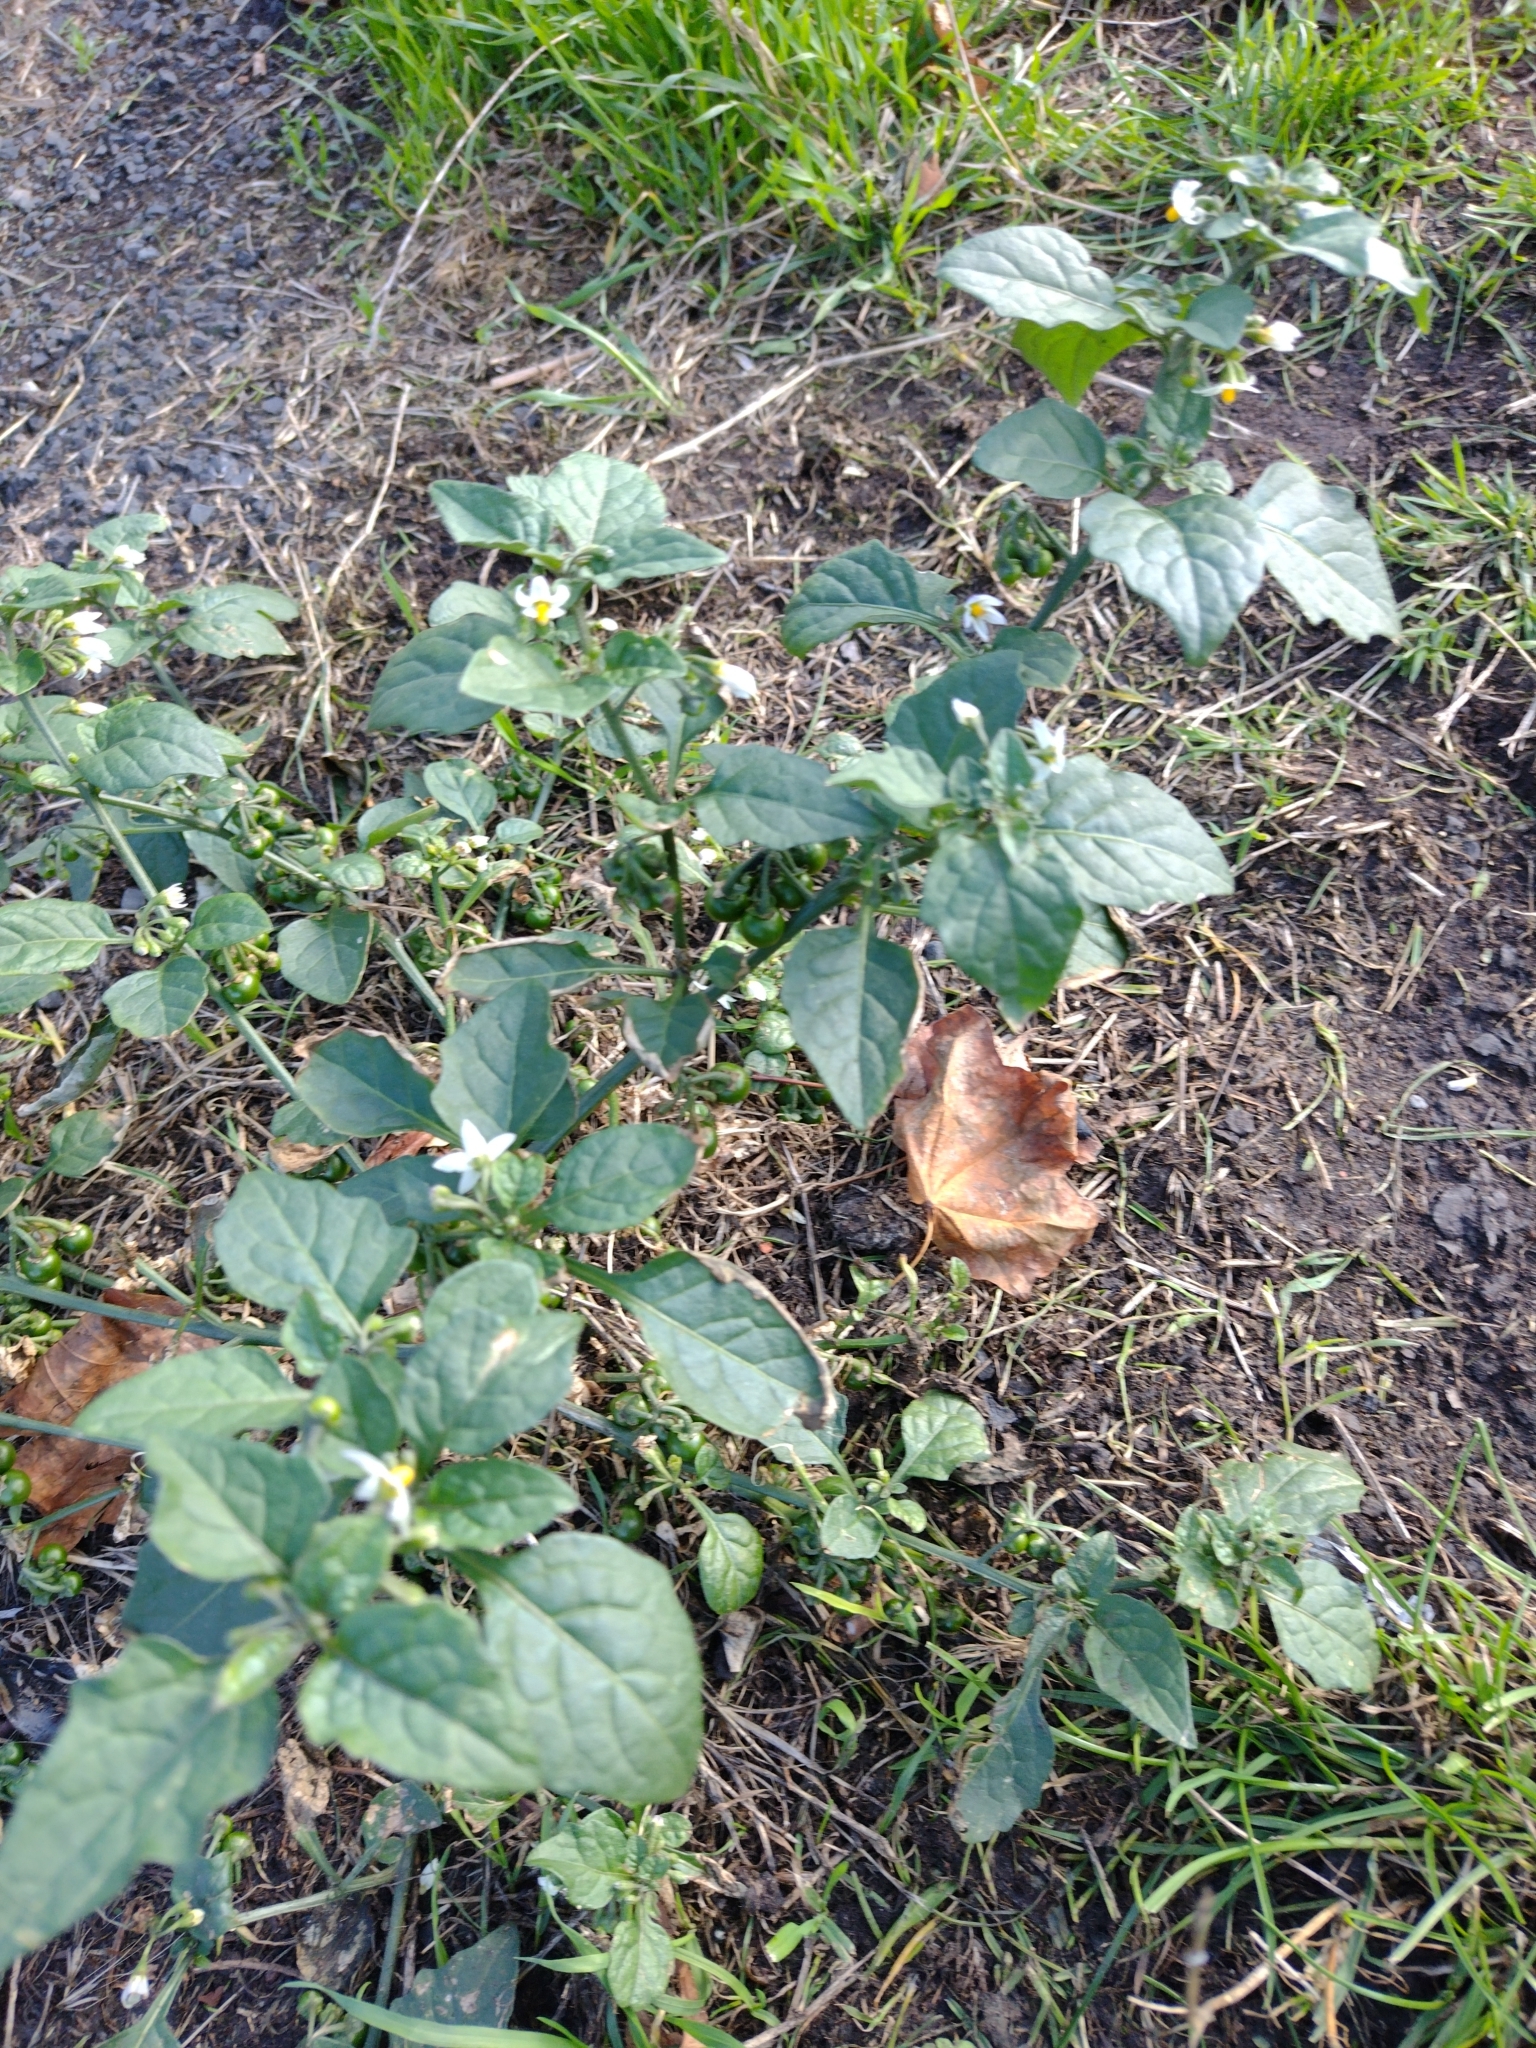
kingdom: Plantae
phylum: Tracheophyta
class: Magnoliopsida
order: Solanales
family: Solanaceae
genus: Solanum
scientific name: Solanum nigrum
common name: Black nightshade
